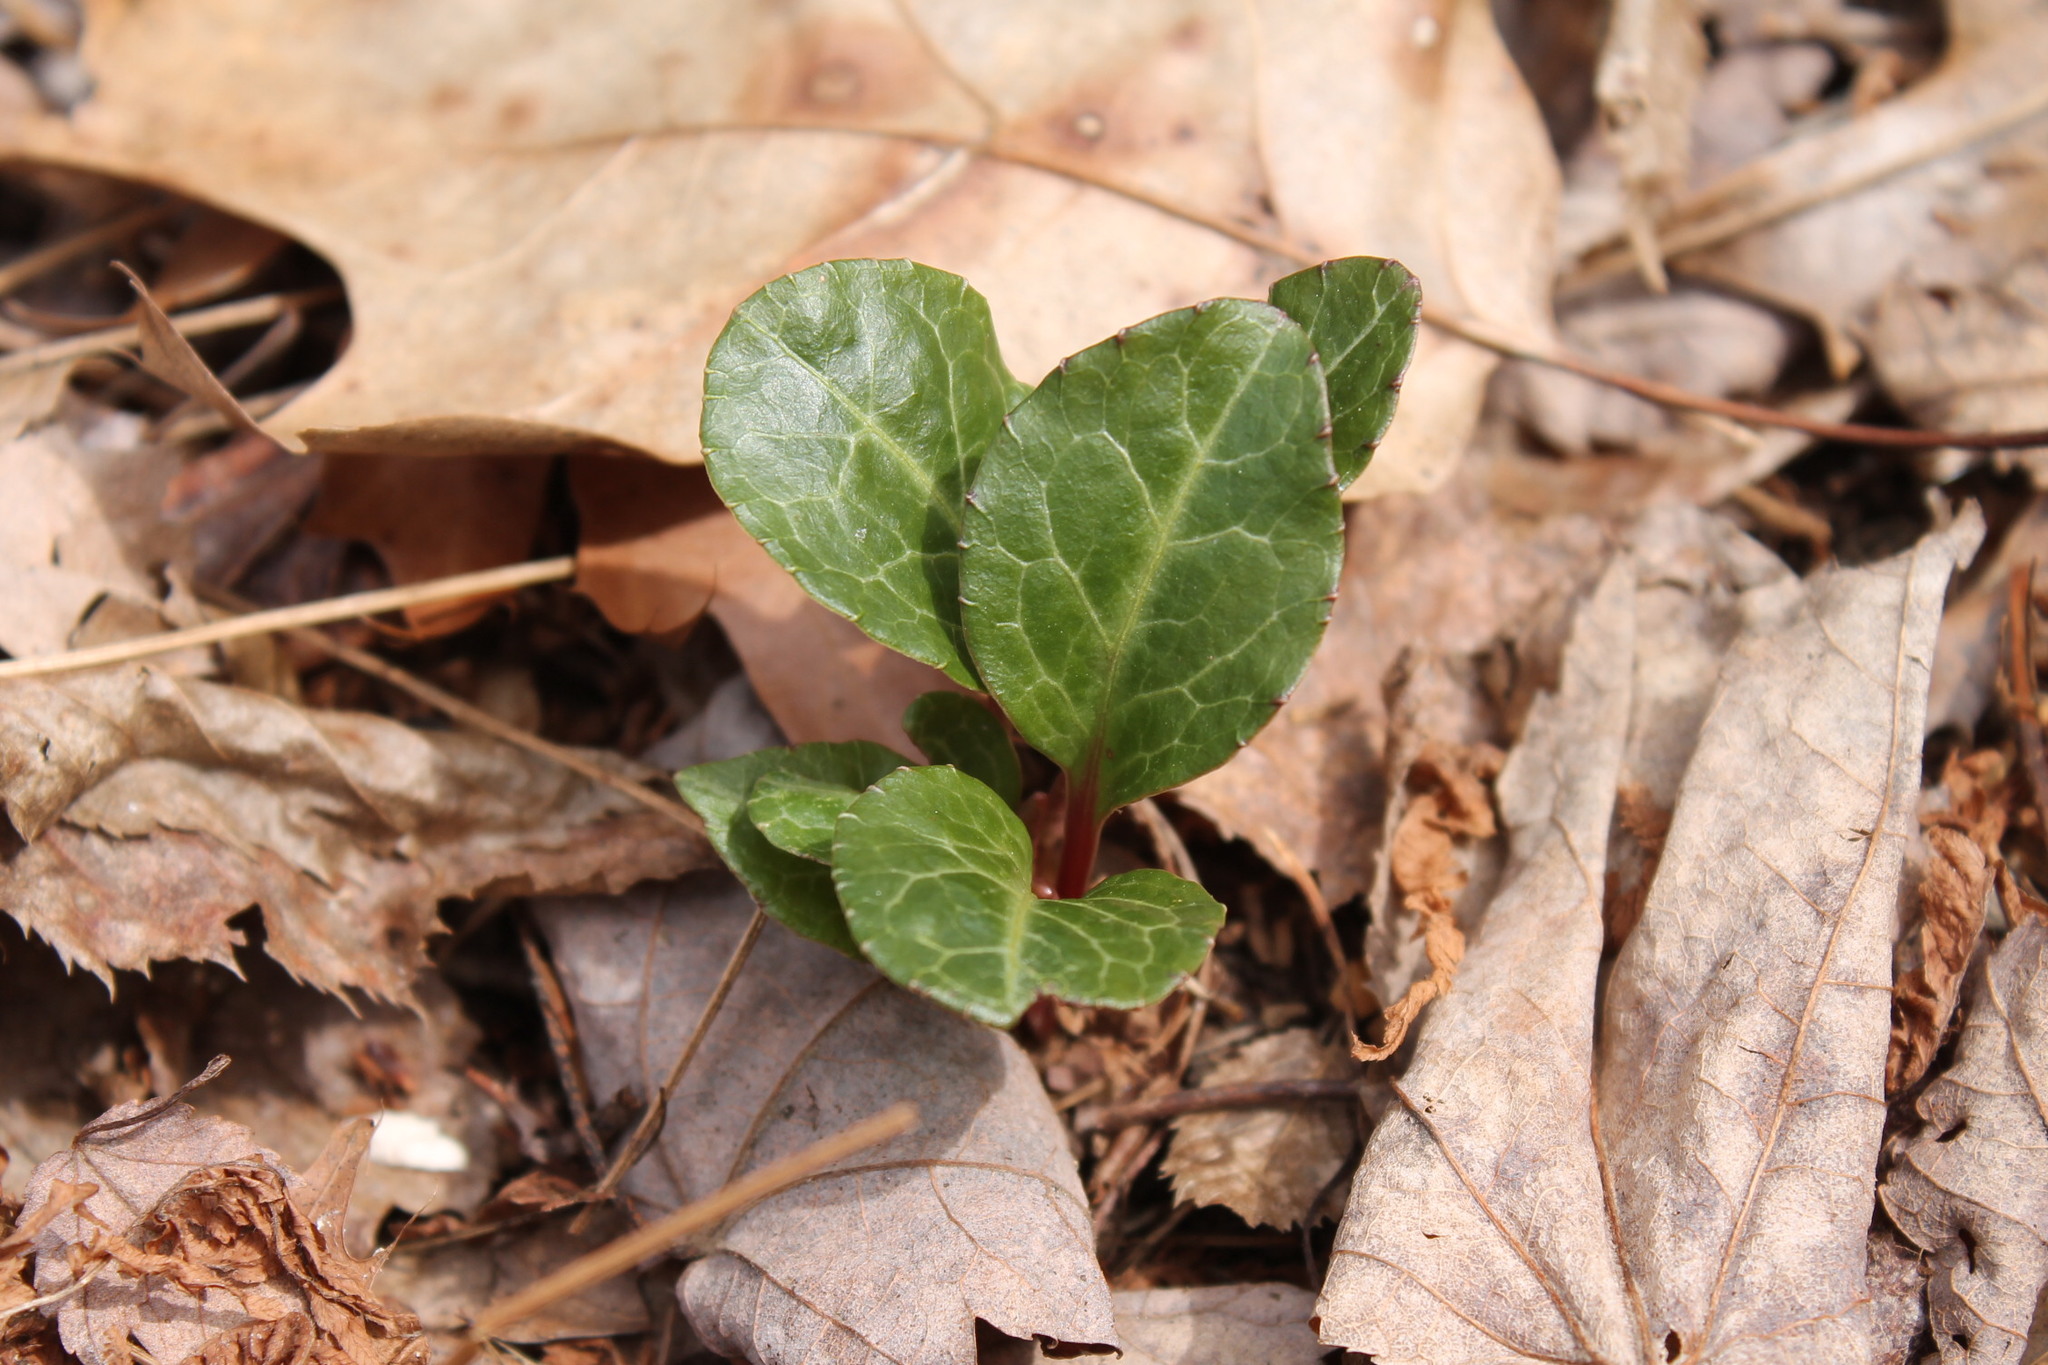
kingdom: Plantae
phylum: Tracheophyta
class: Magnoliopsida
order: Ericales
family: Ericaceae
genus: Pyrola
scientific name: Pyrola americana
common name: American wintergreen
